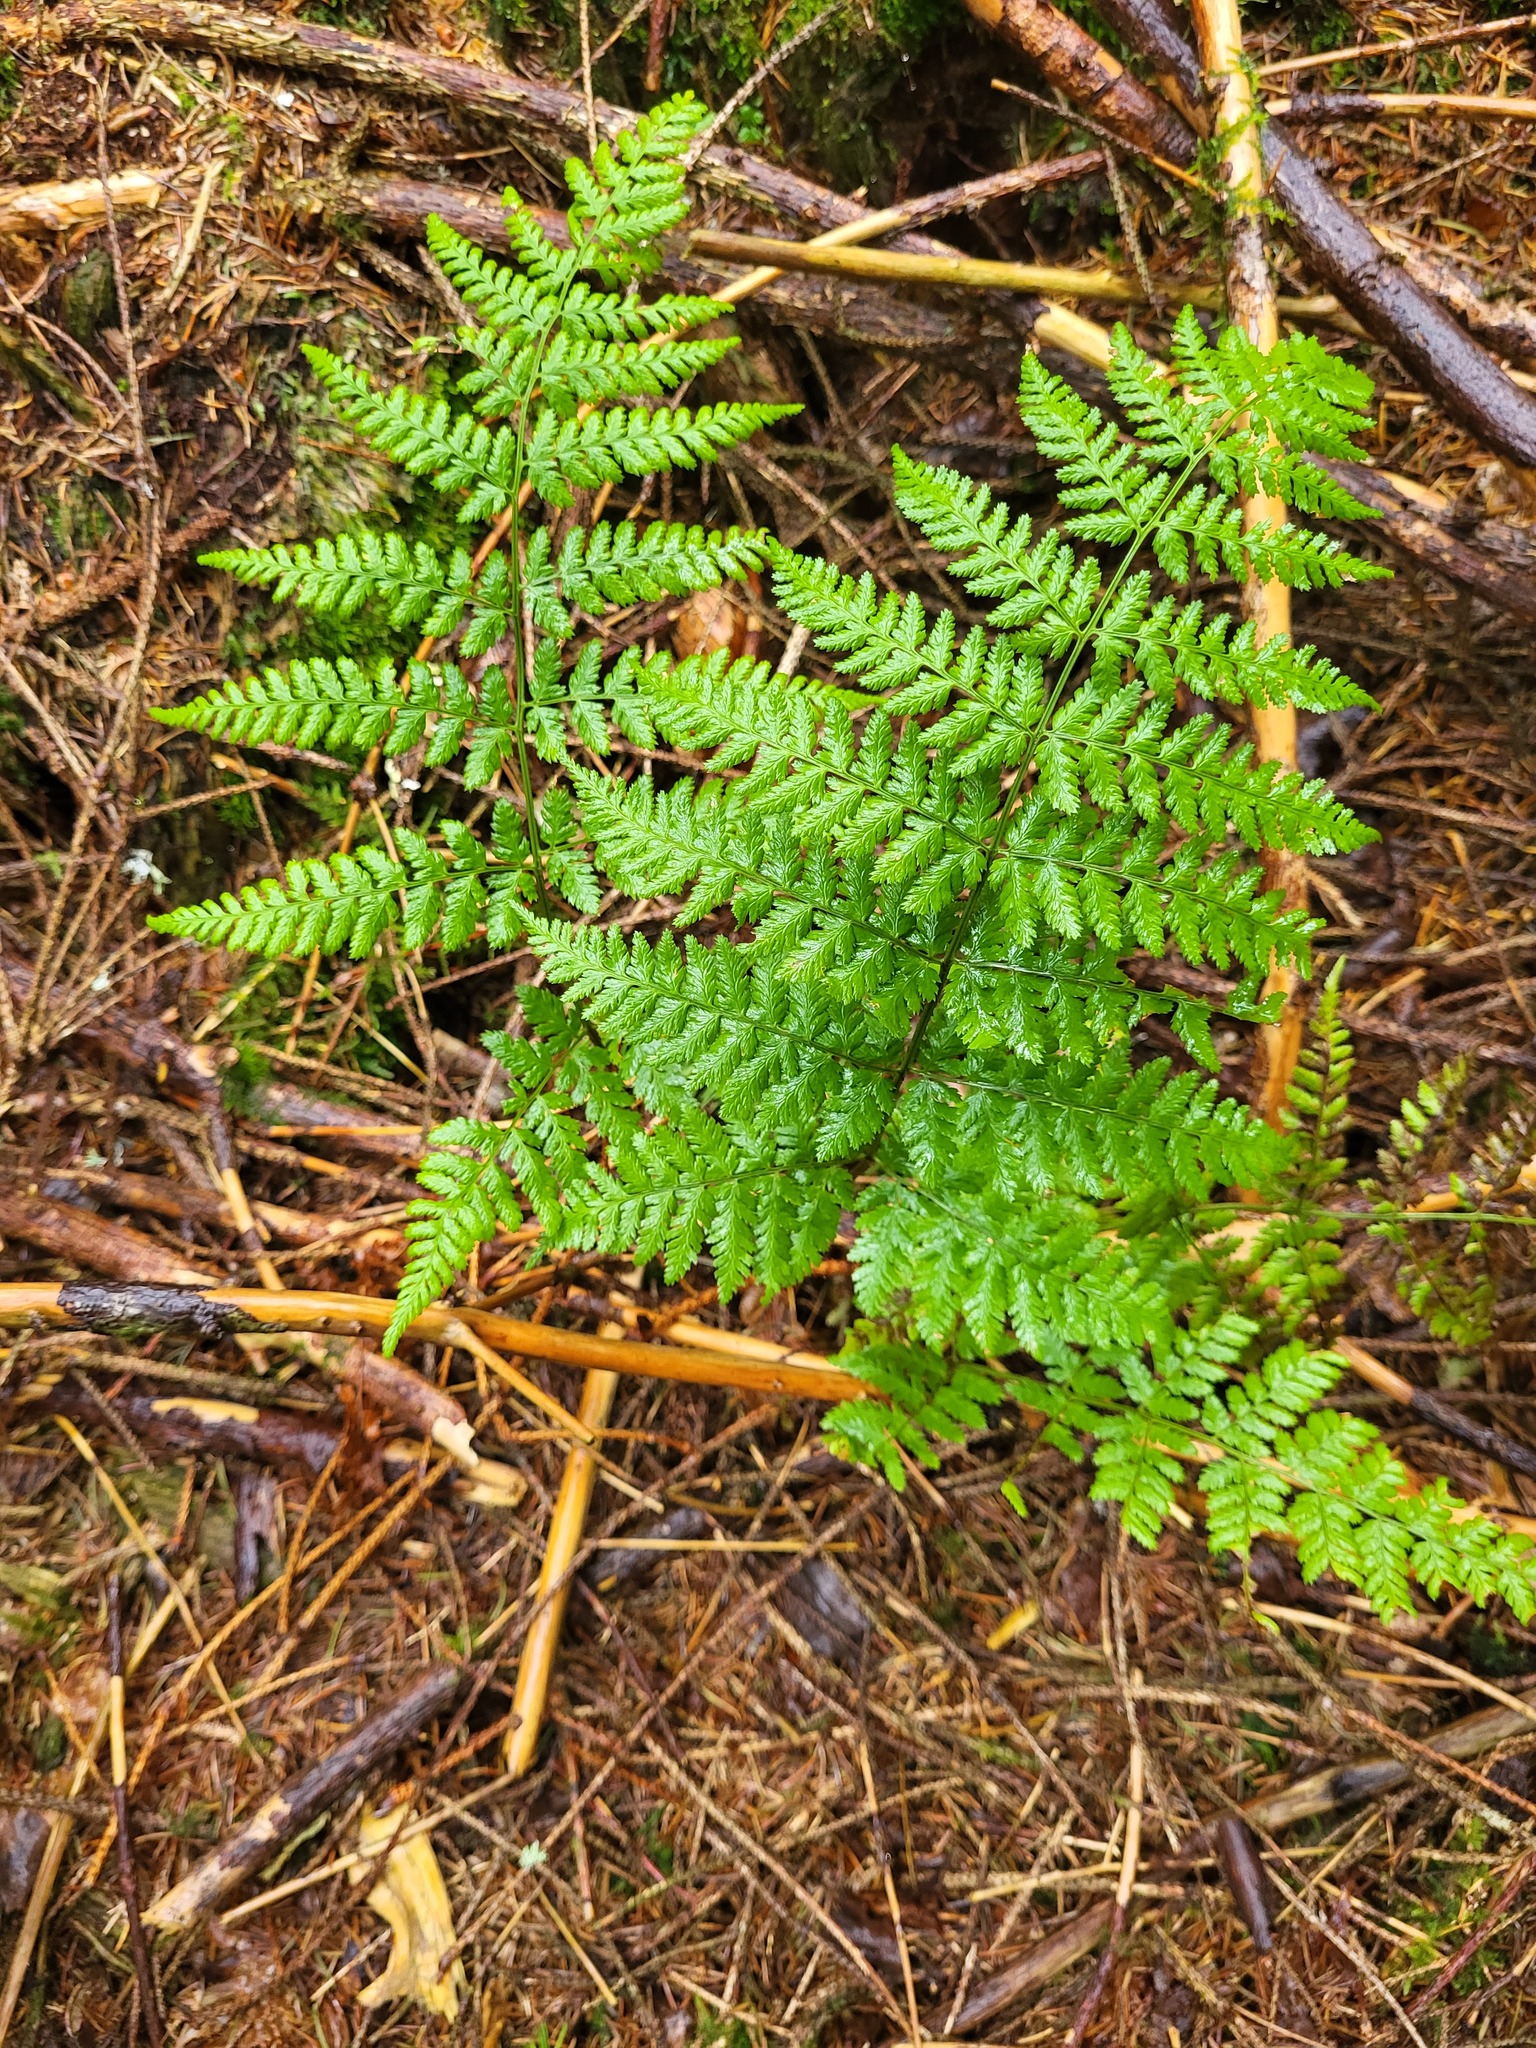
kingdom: Plantae
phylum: Tracheophyta
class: Polypodiopsida
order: Polypodiales
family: Dryopteridaceae
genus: Dryopteris
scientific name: Dryopteris dilatata
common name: Broad buckler-fern
